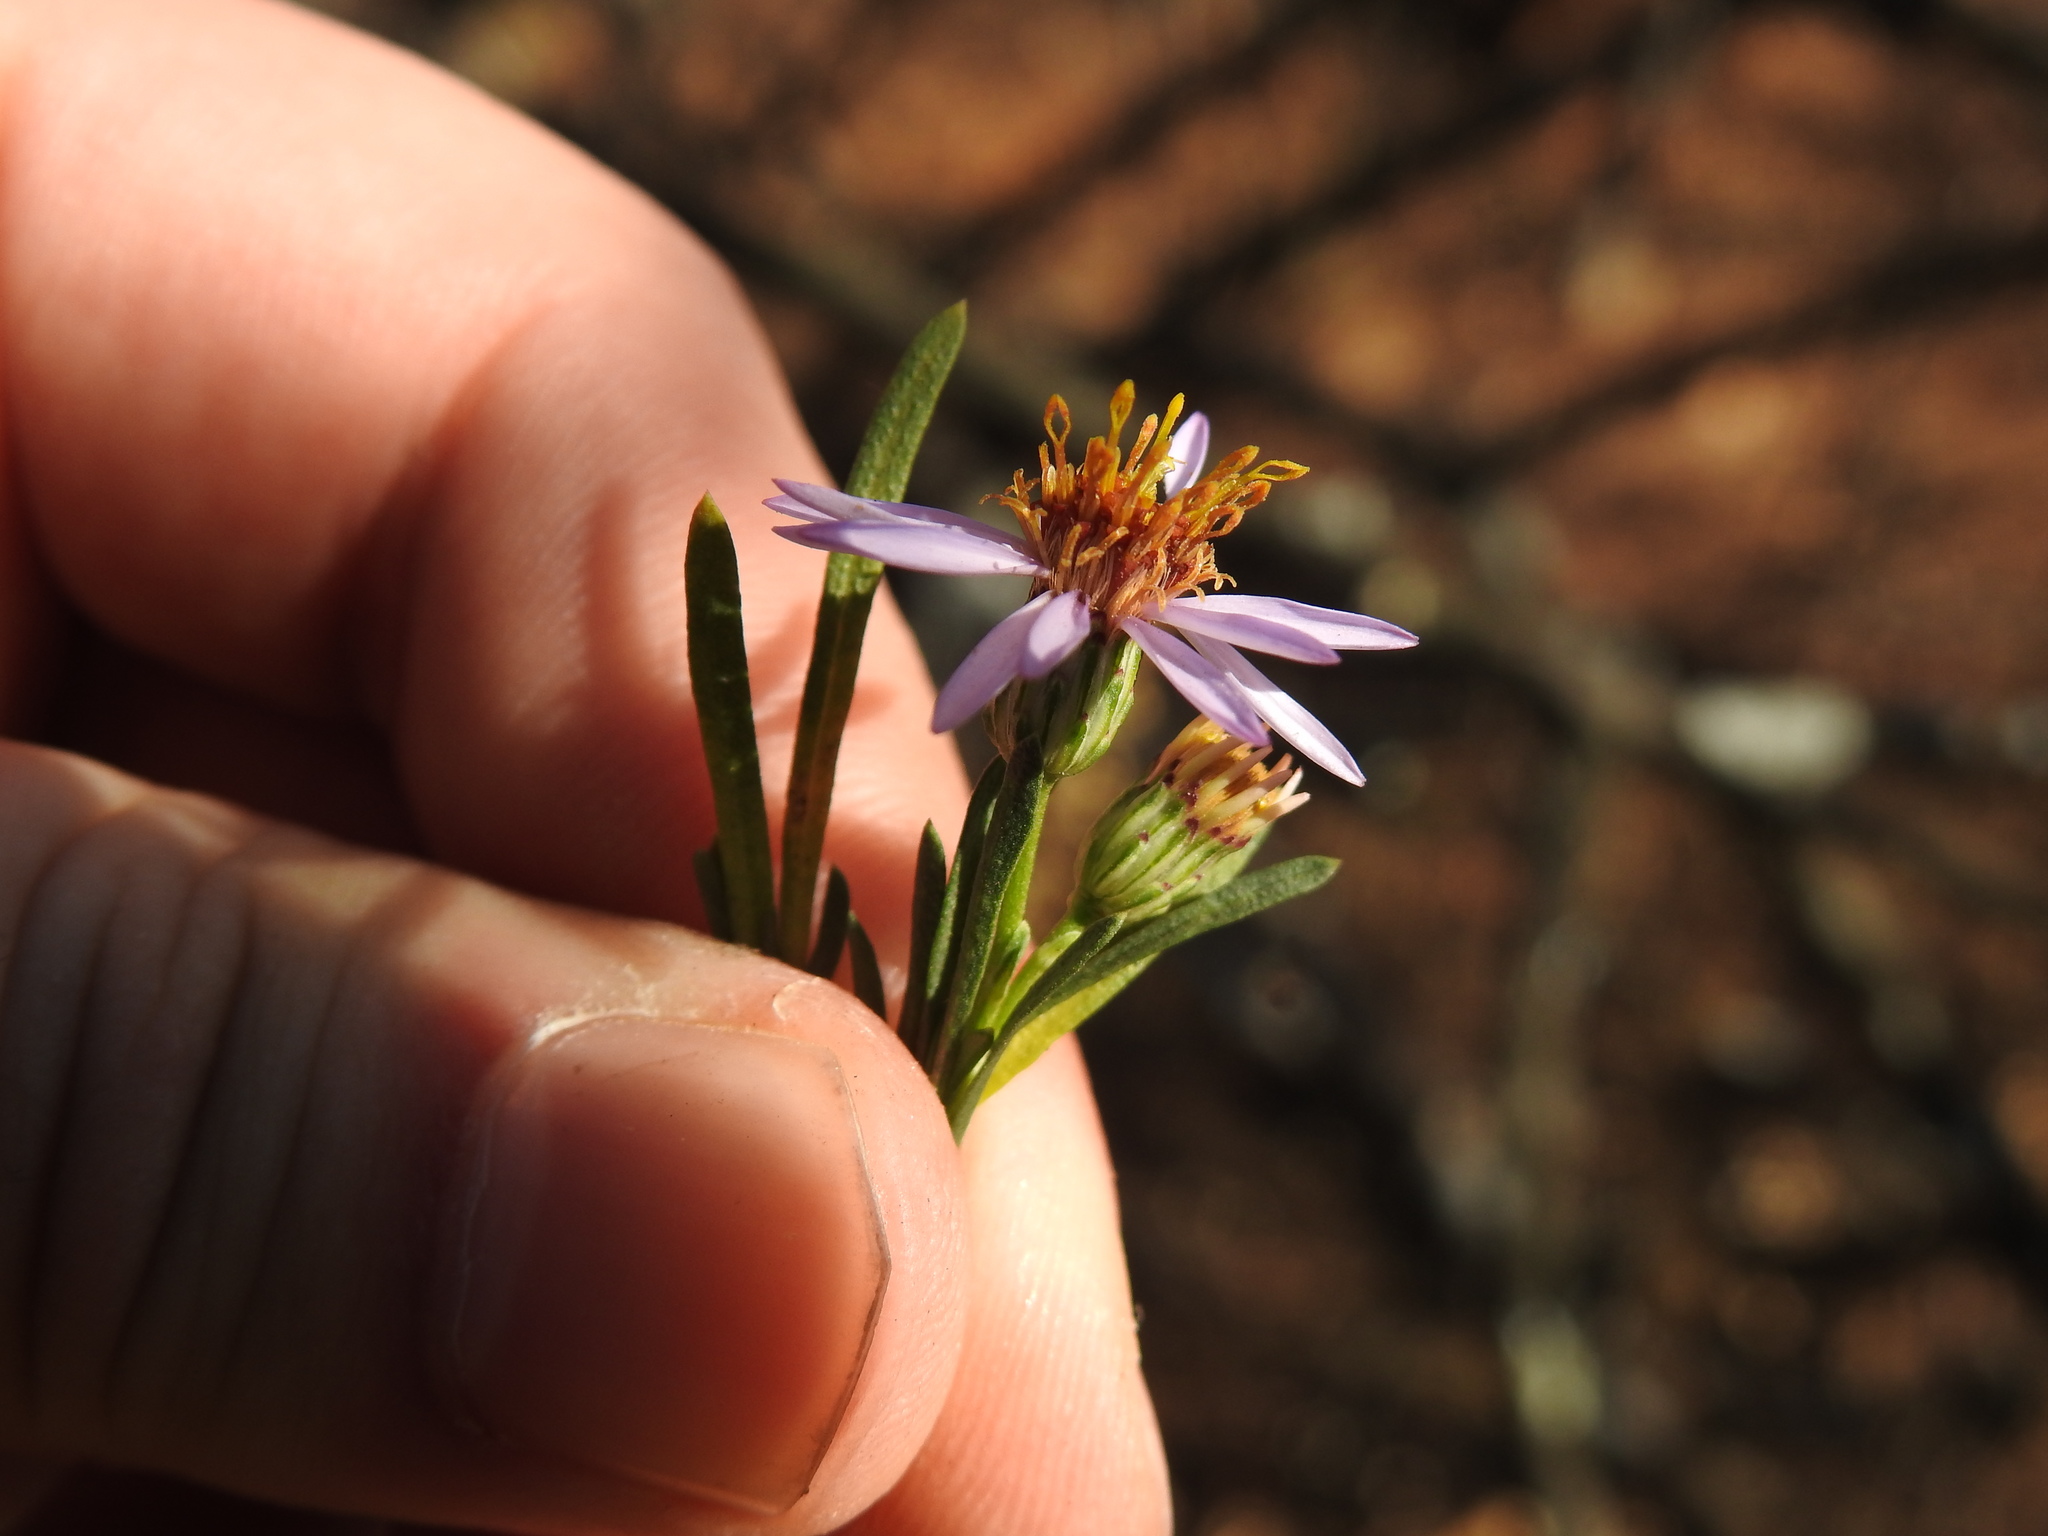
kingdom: Plantae
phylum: Tracheophyta
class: Magnoliopsida
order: Asterales
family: Asteraceae
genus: Athrixia
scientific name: Athrixia elata
